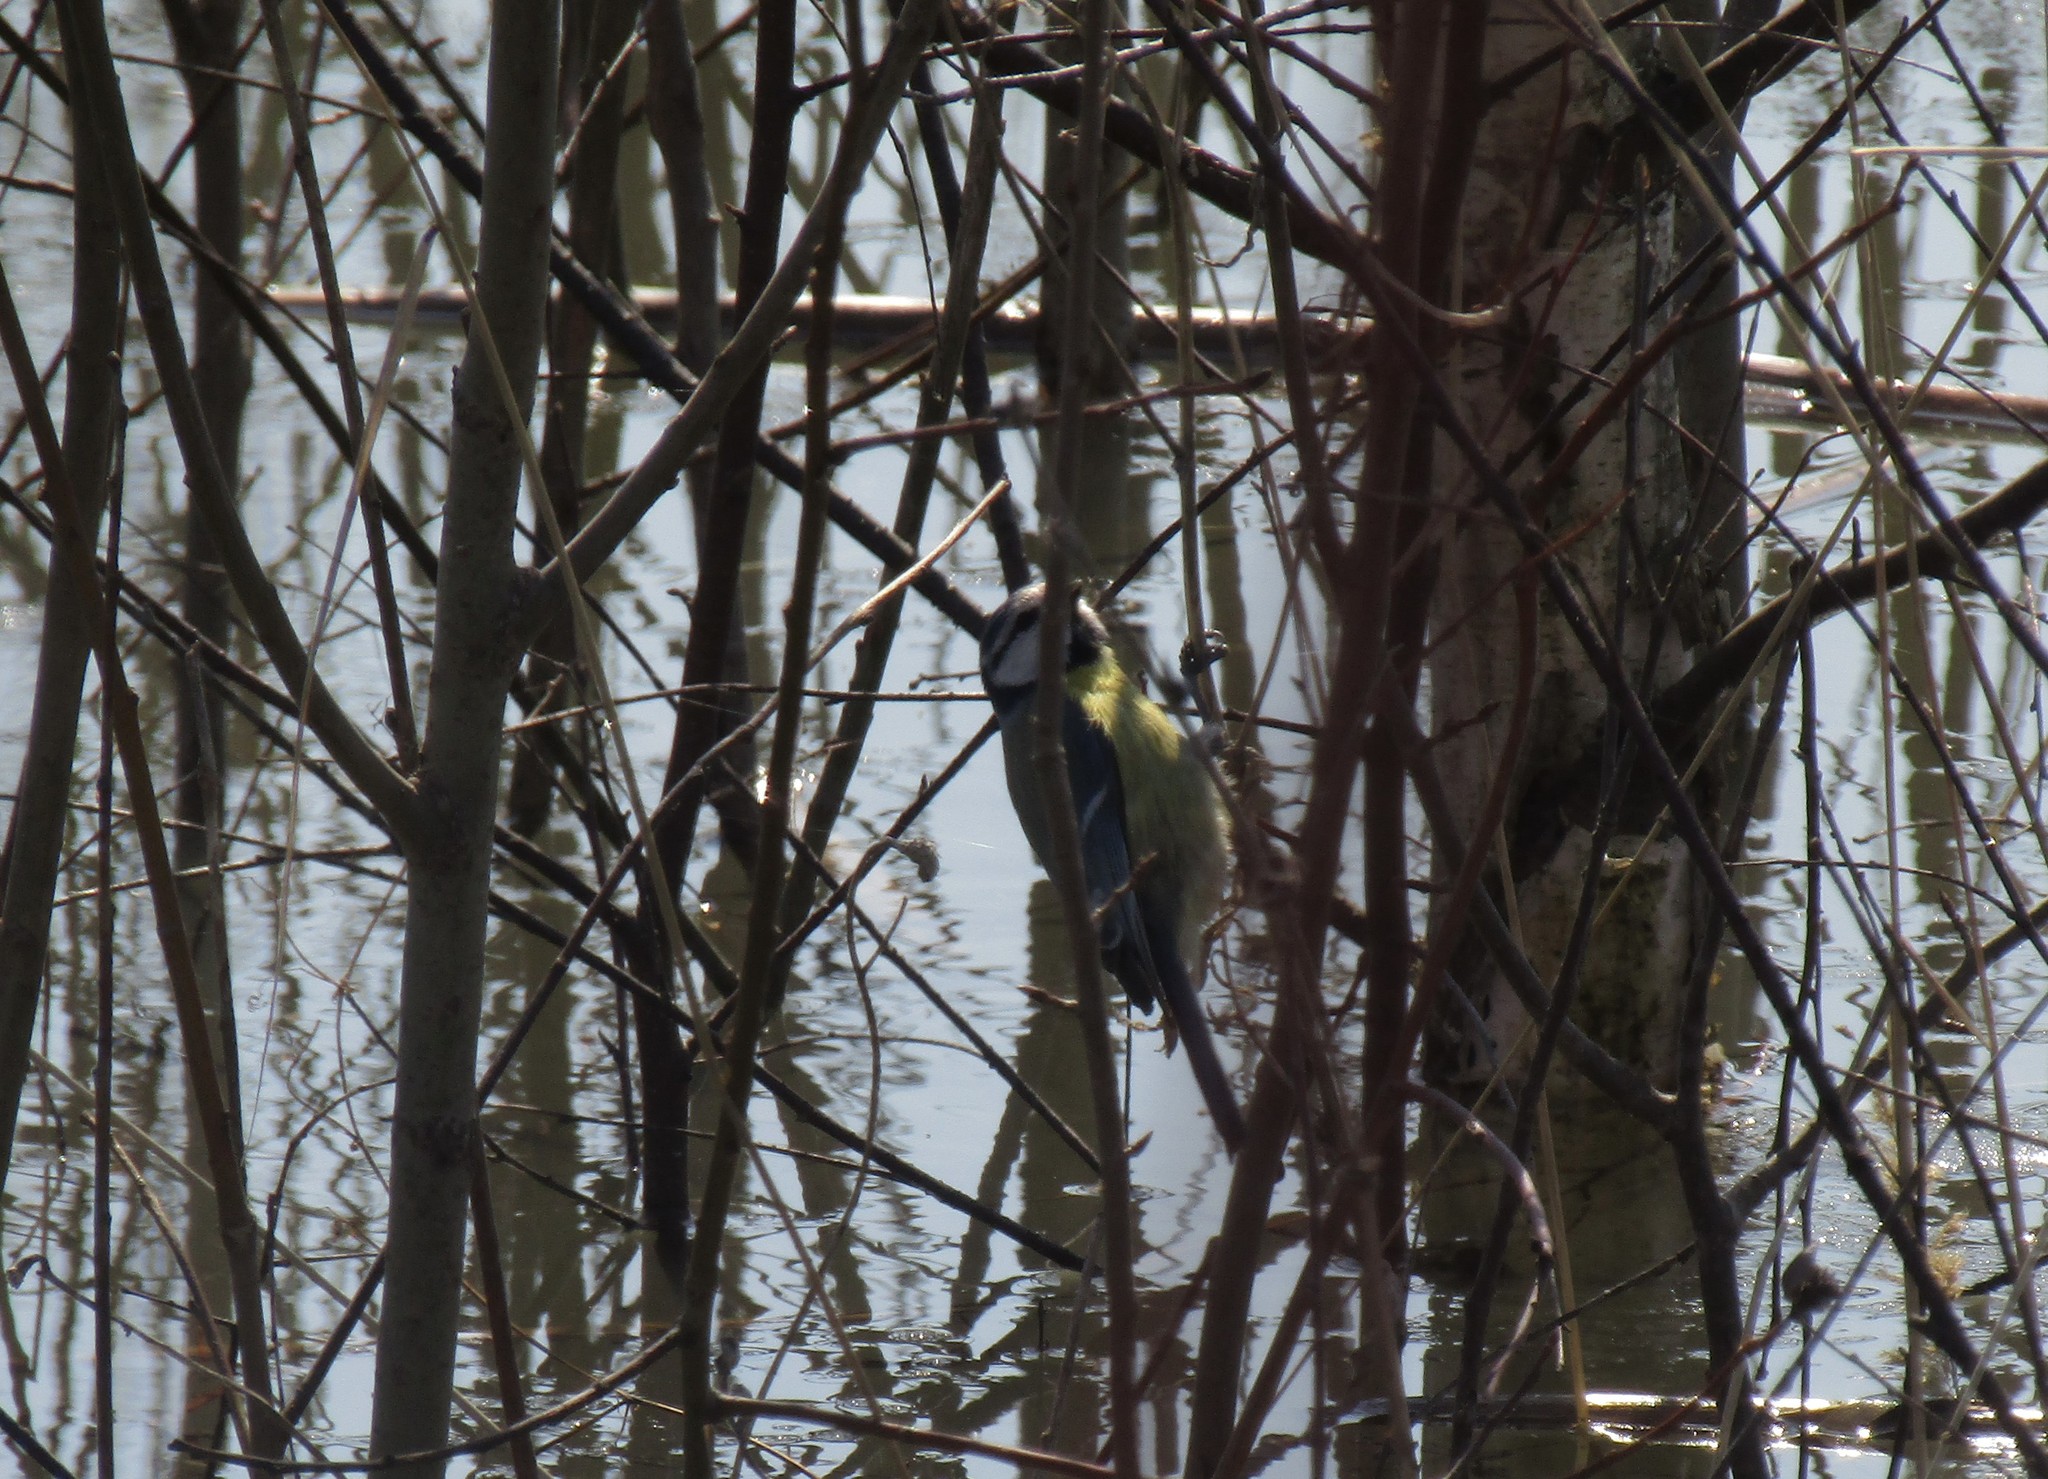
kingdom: Animalia
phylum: Chordata
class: Aves
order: Passeriformes
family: Paridae
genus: Cyanistes
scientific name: Cyanistes caeruleus
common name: Eurasian blue tit
